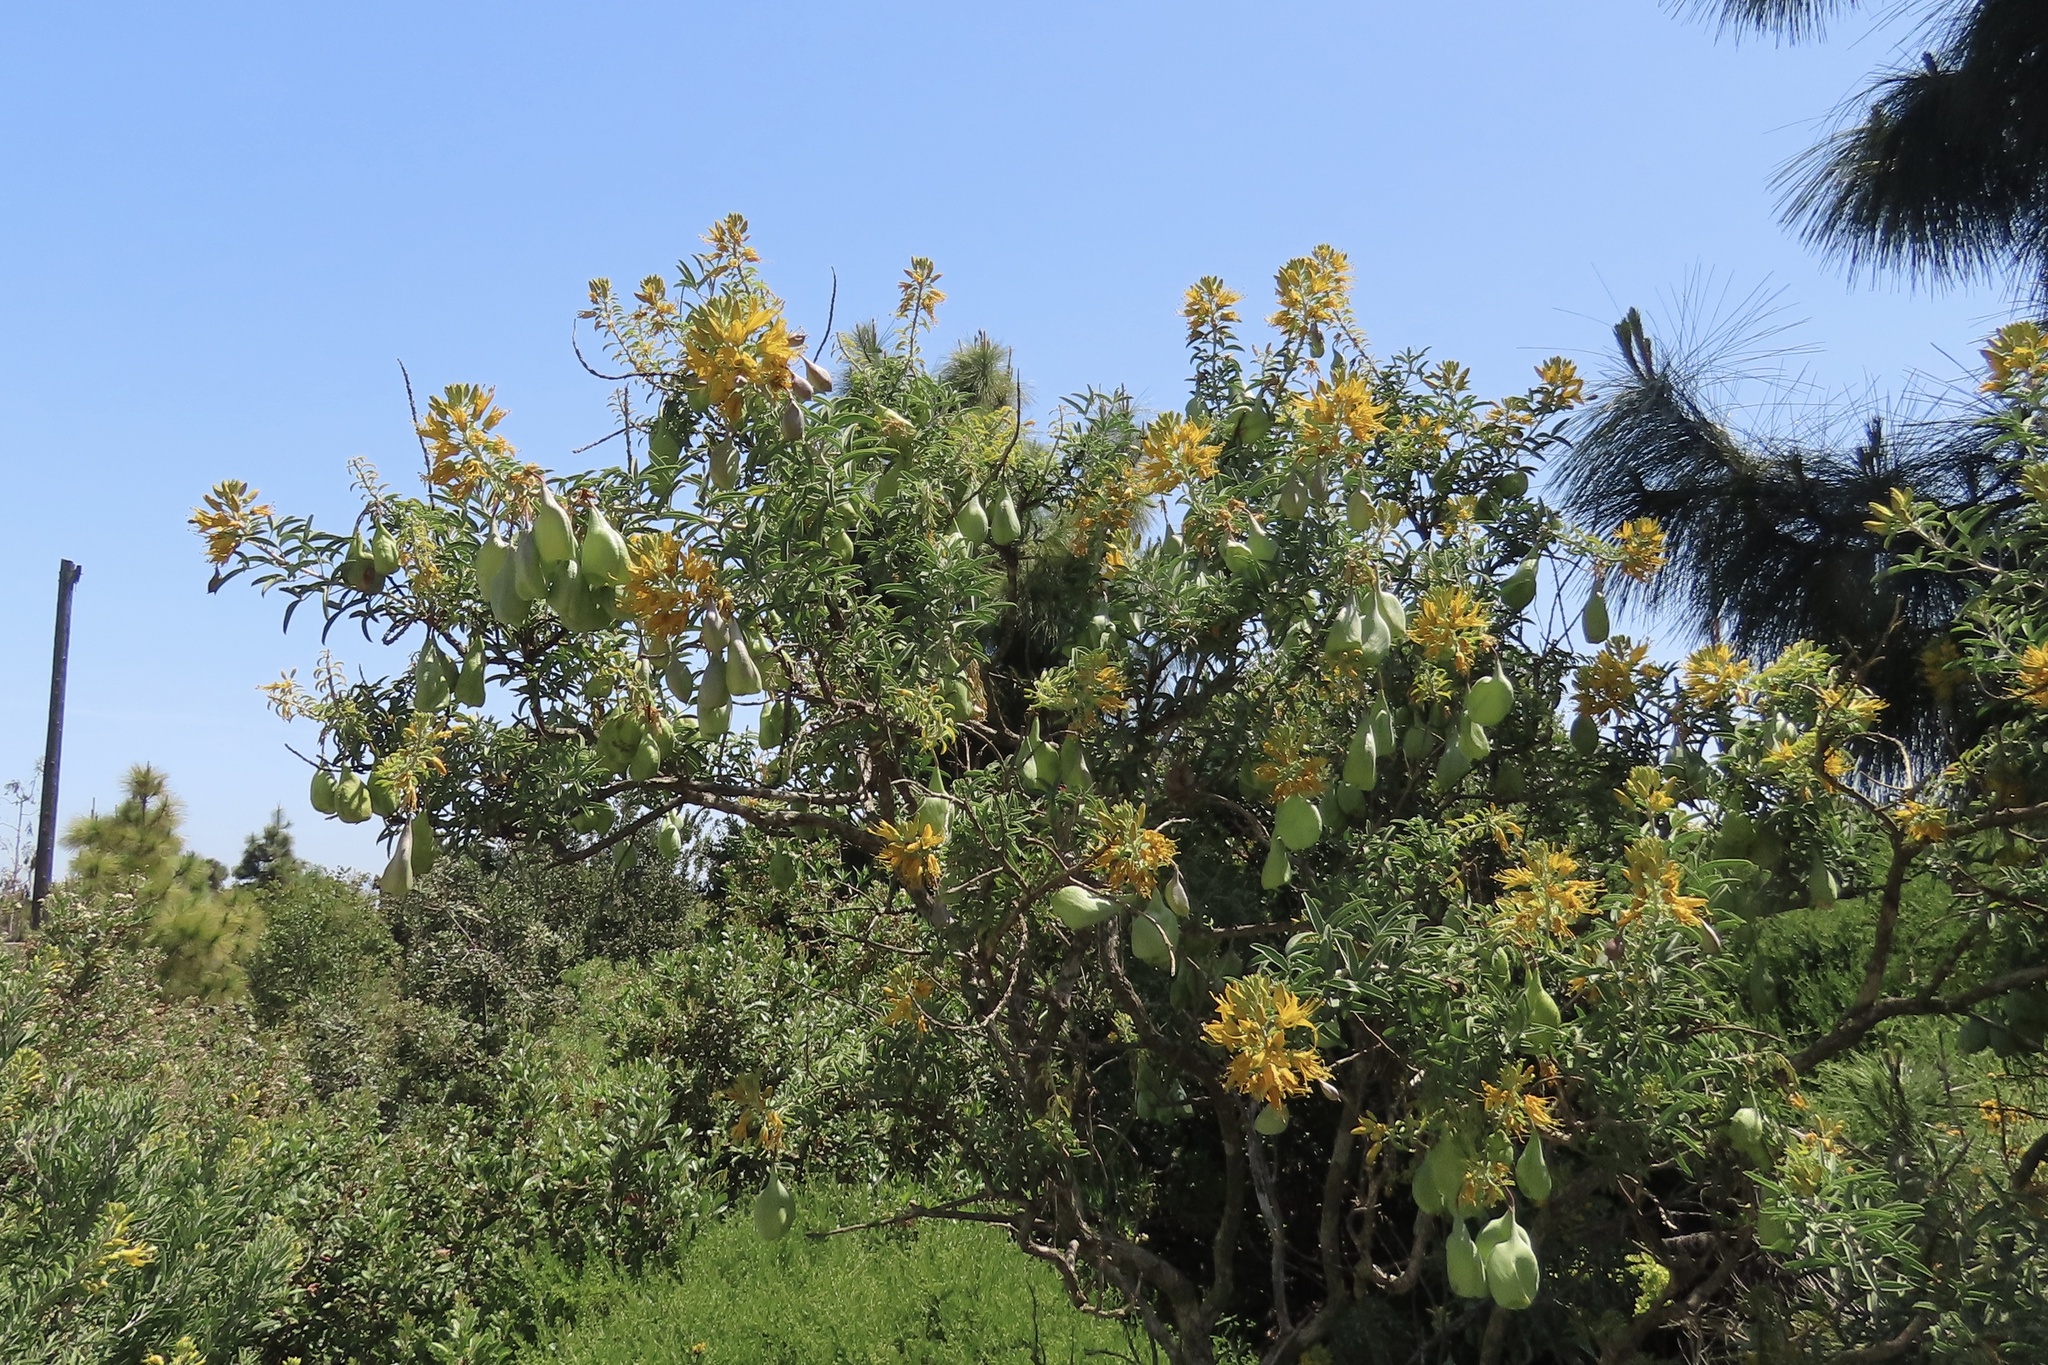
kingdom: Plantae
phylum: Tracheophyta
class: Magnoliopsida
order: Brassicales
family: Cleomaceae
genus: Cleomella
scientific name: Cleomella arborea
